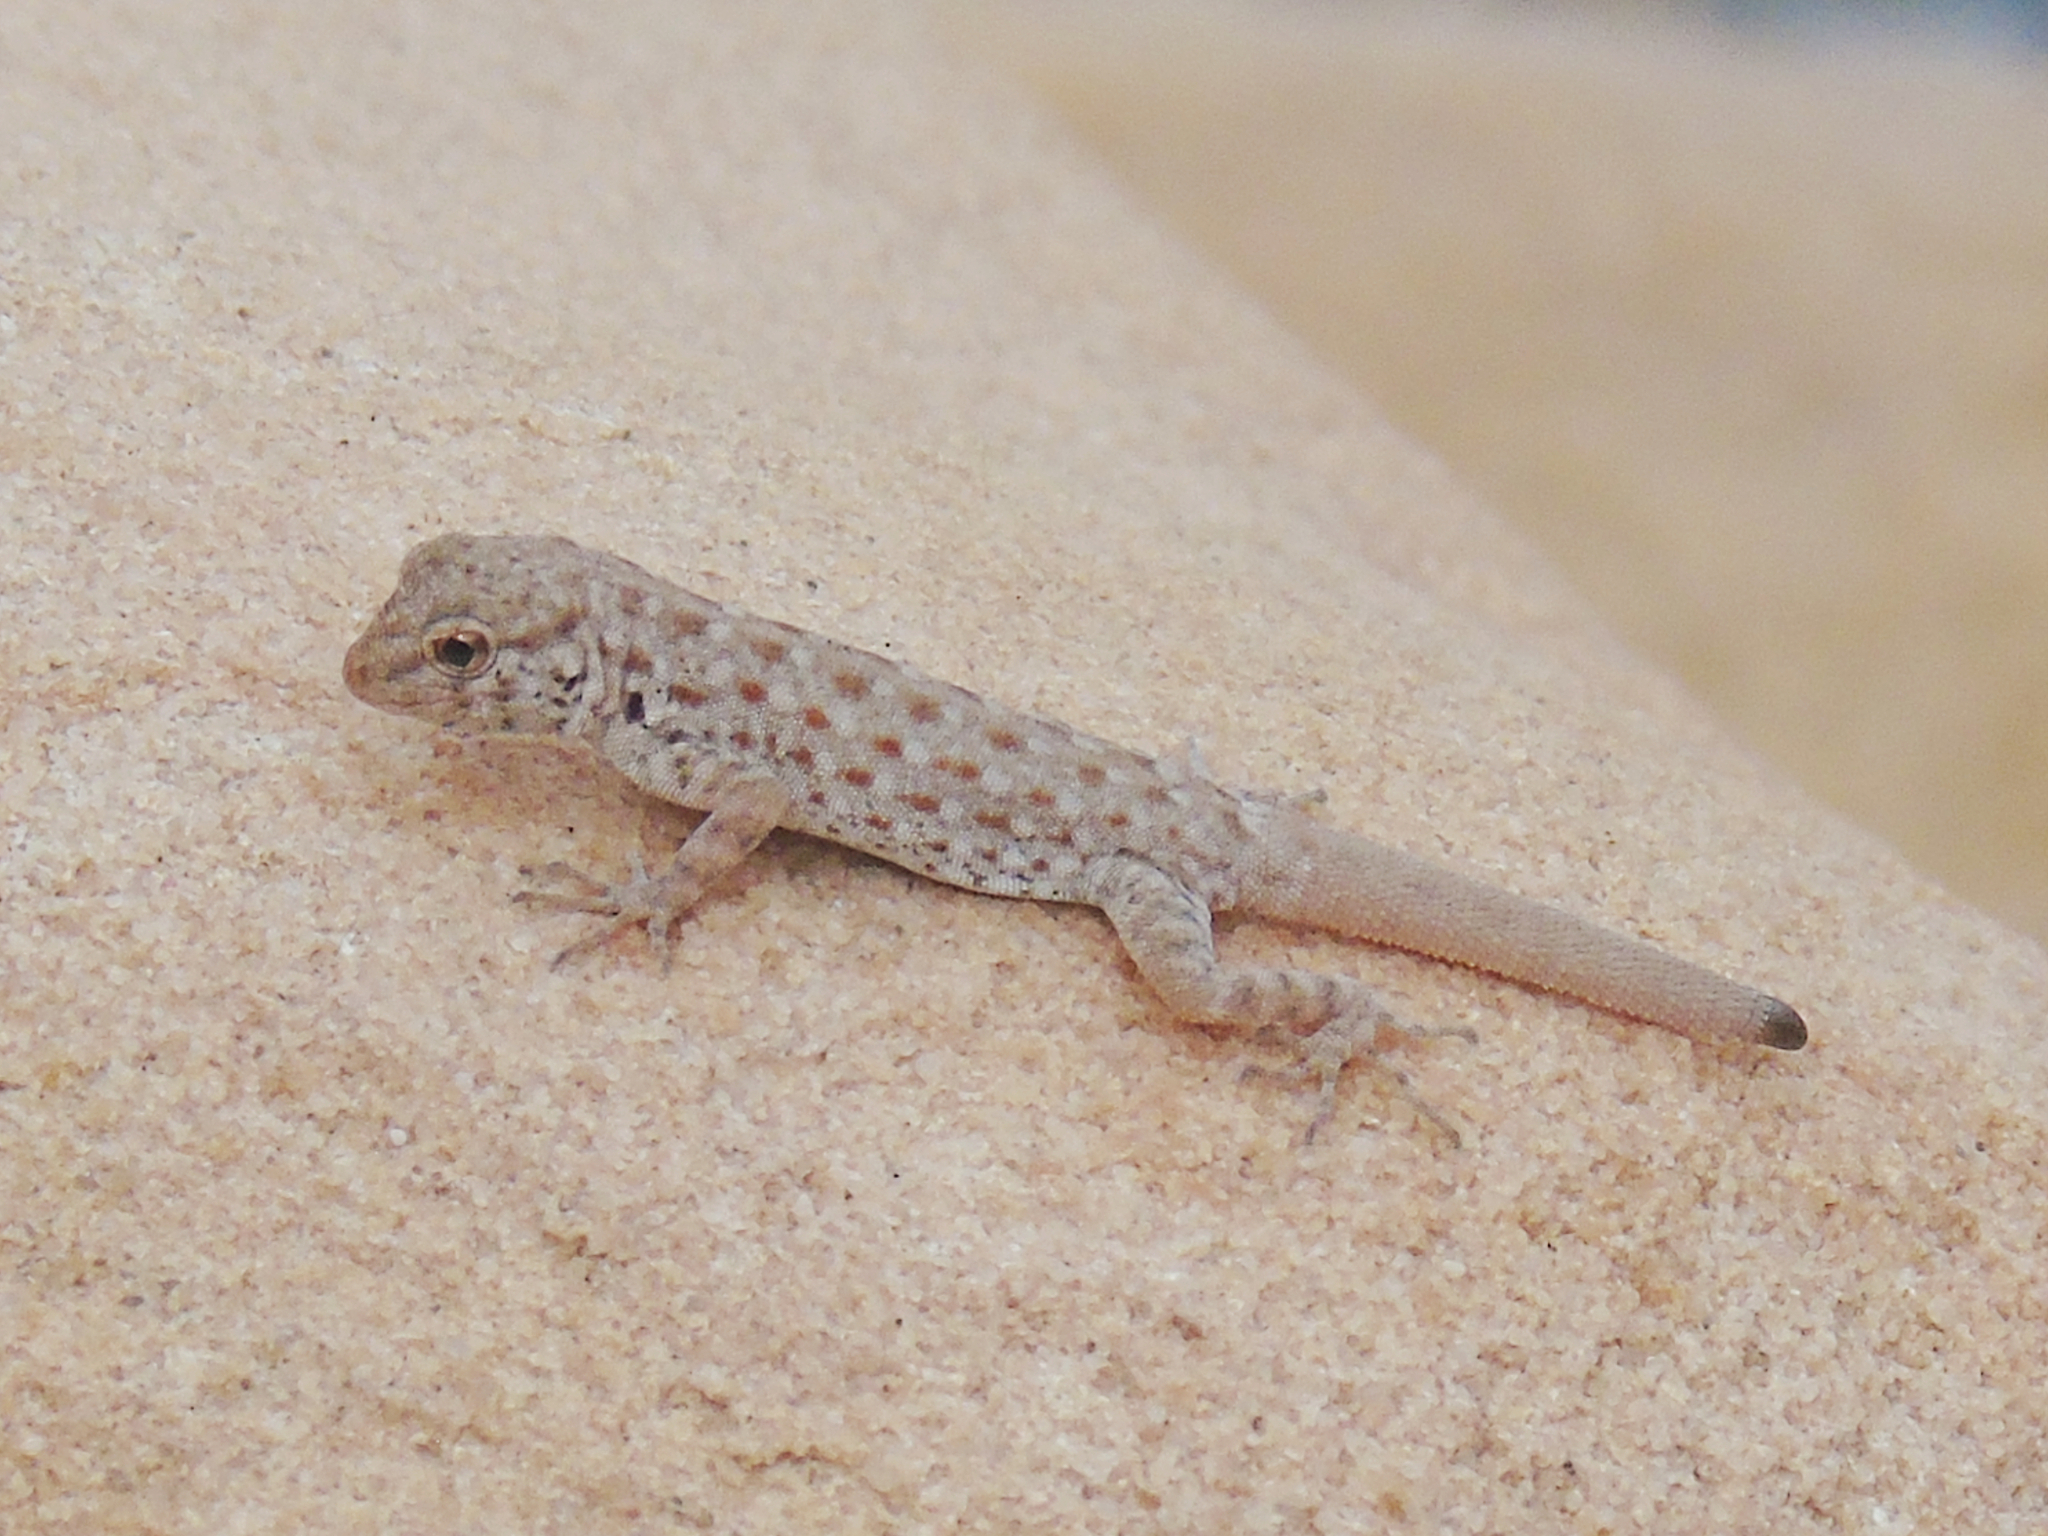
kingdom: Animalia
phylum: Chordata
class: Squamata
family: Sphaerodactylidae
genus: Pristurus
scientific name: Pristurus rupestris
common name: Blanford’s semaphore gecko
